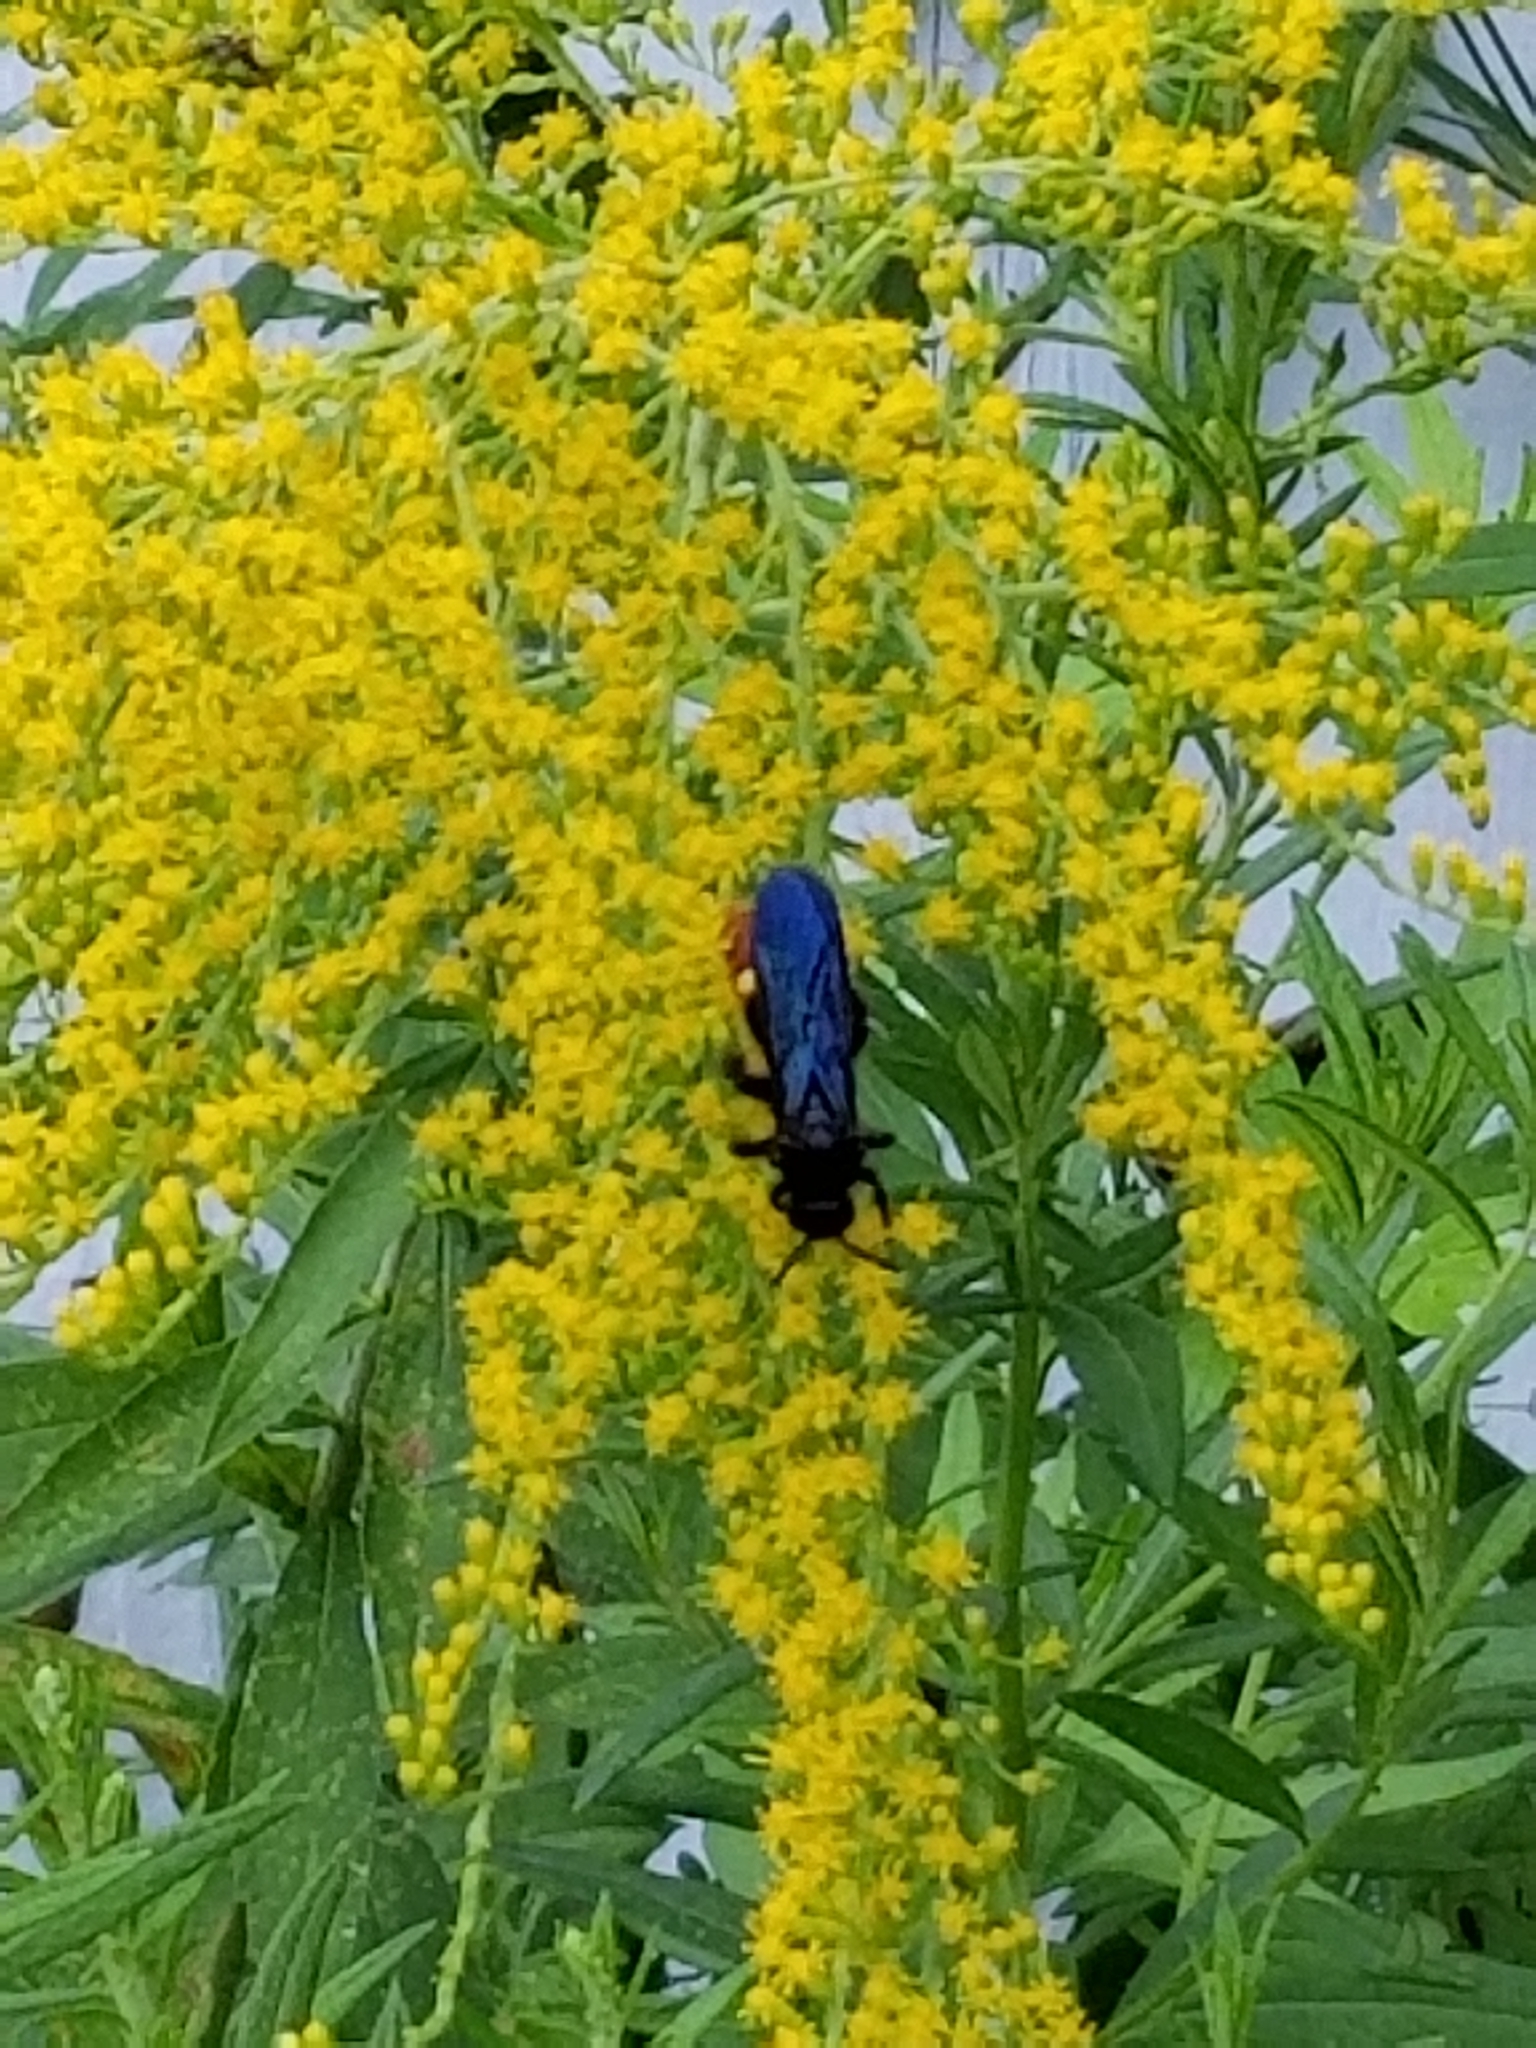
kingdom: Animalia
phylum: Arthropoda
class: Insecta
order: Hymenoptera
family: Scoliidae
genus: Scolia
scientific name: Scolia dubia
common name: Blue-winged scoliid wasp
